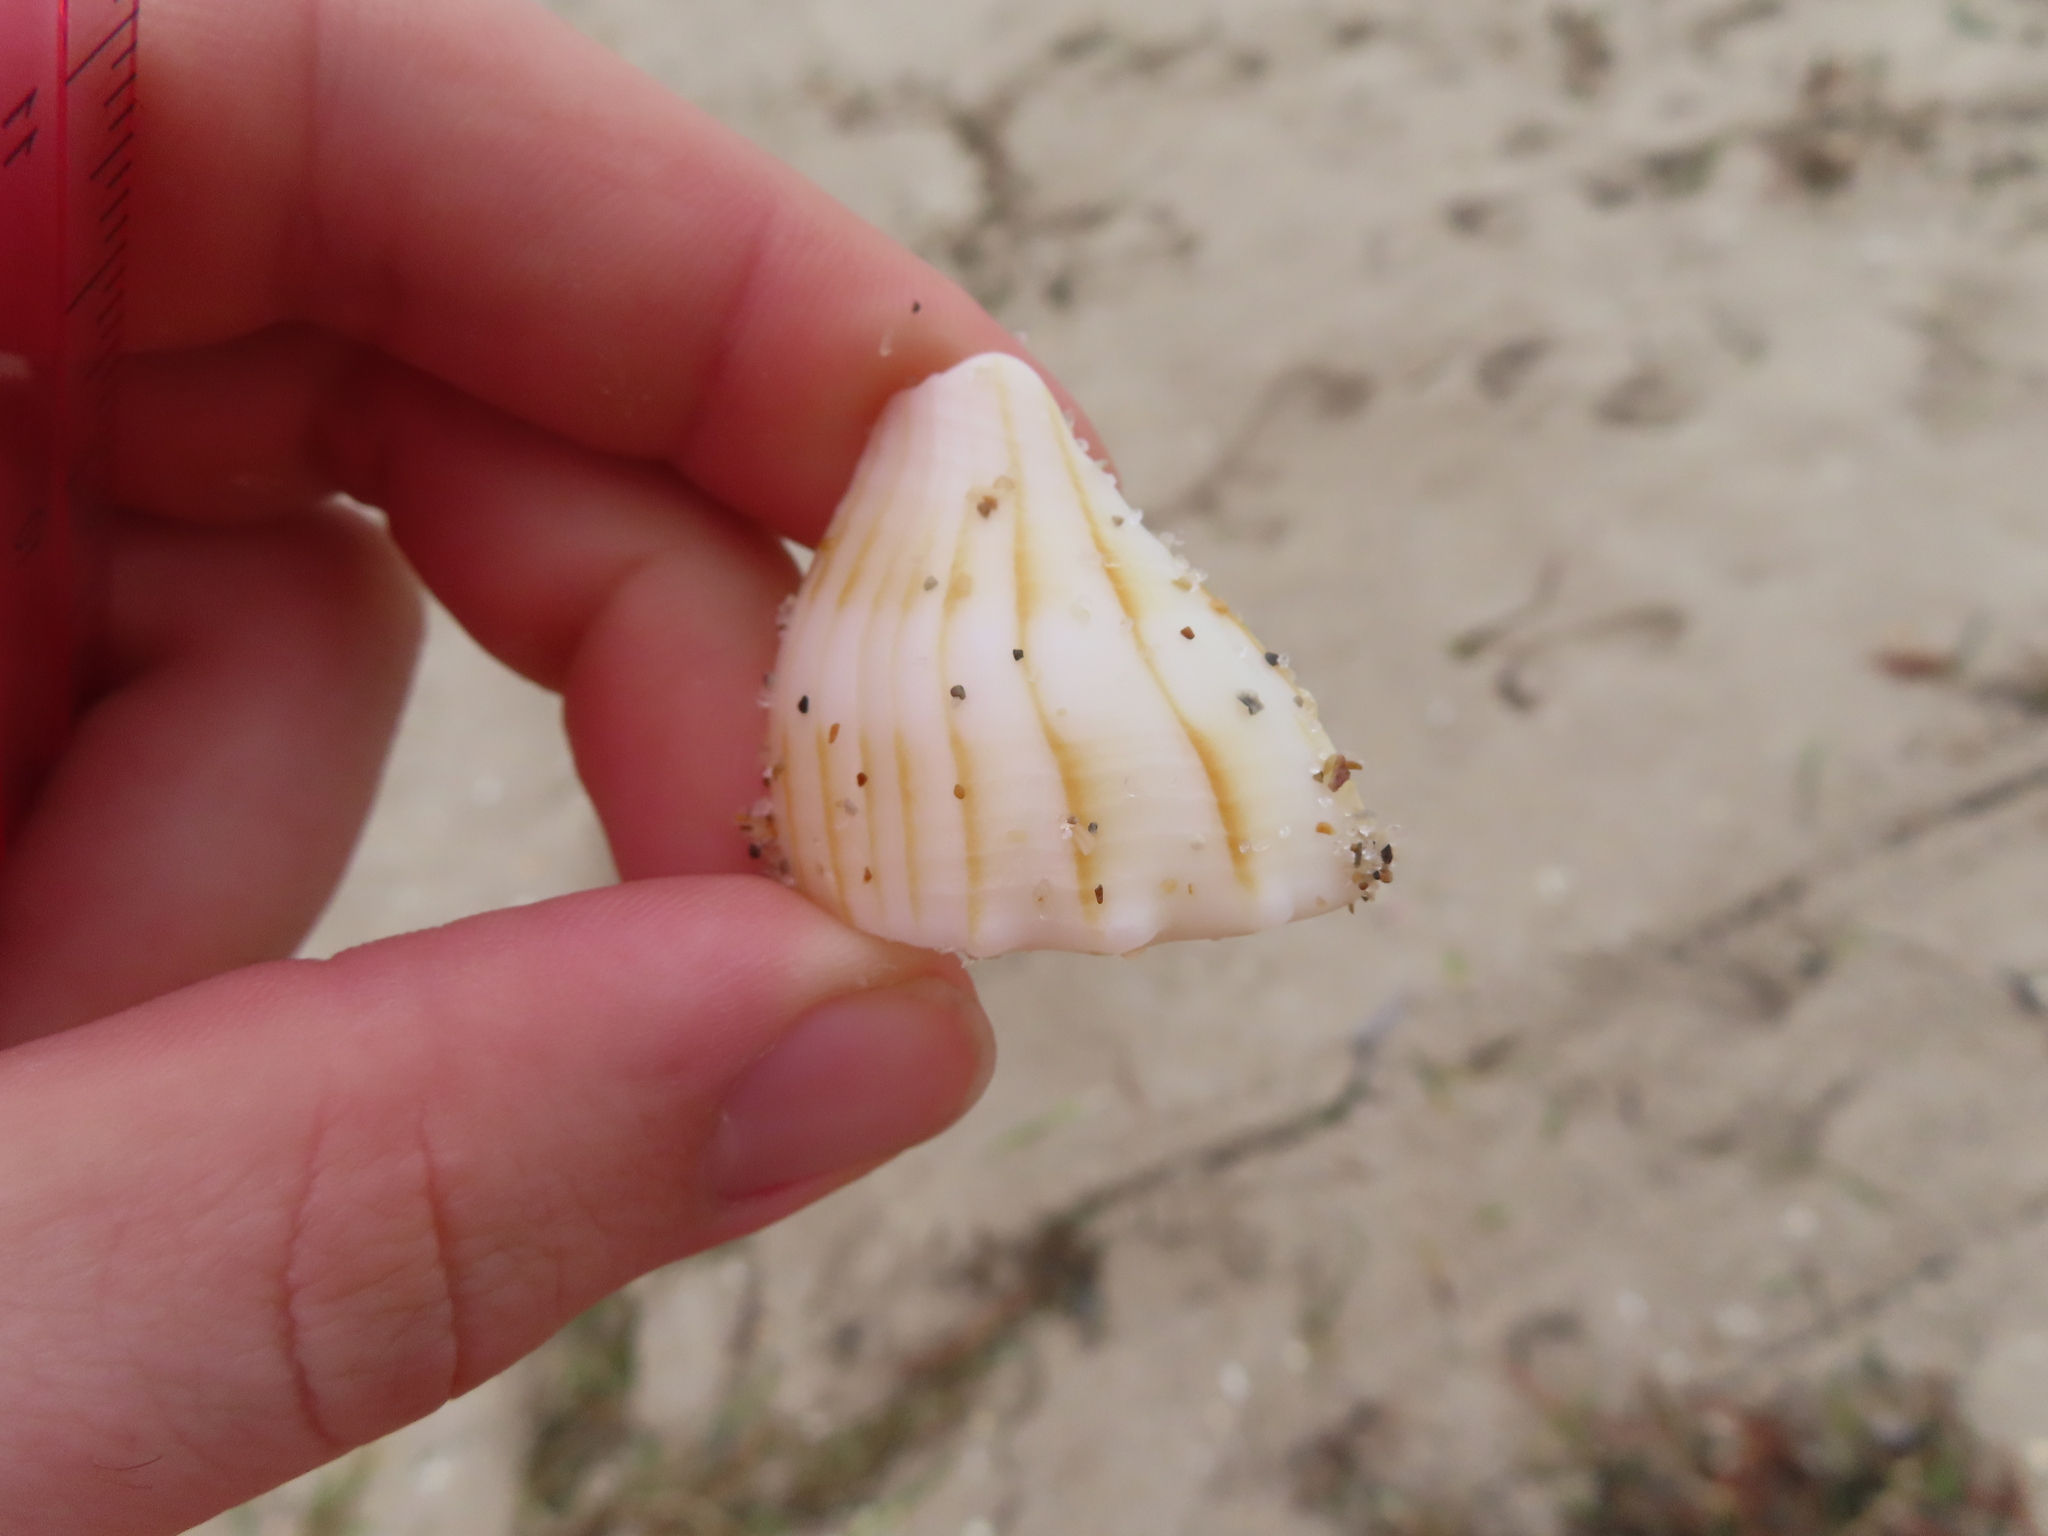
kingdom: Animalia
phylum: Mollusca
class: Gastropoda
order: Neogastropoda
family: Busyconidae
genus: Sinistrofulgur
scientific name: Sinistrofulgur sinistrum
